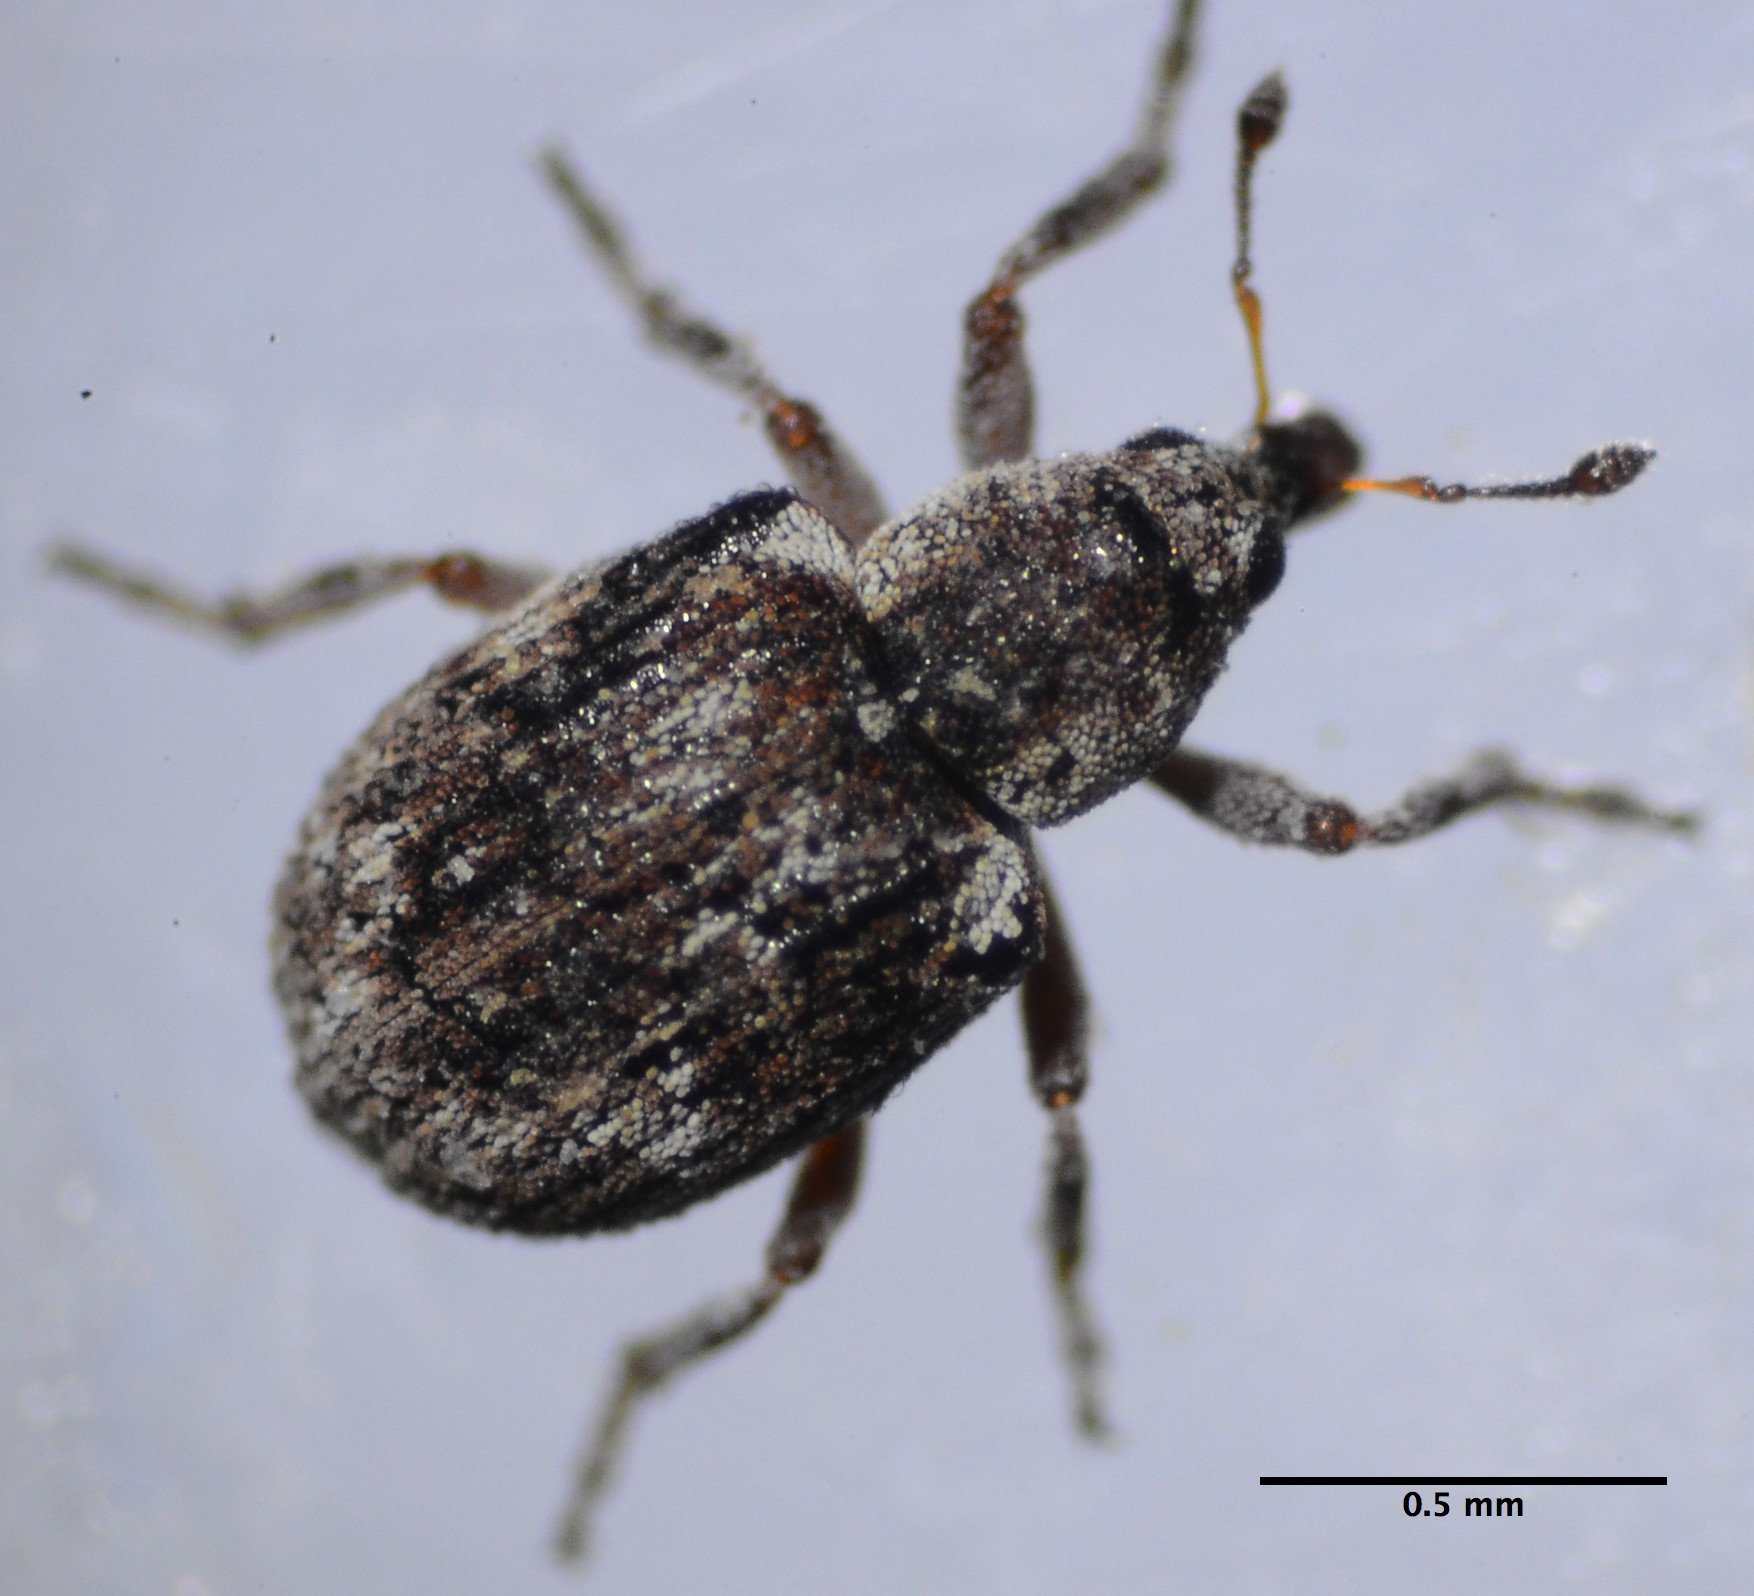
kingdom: Animalia
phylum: Arthropoda
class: Insecta
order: Coleoptera
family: Brachyceridae
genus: Stenopelmus
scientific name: Stenopelmus rufinasus
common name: Azolla weevil
